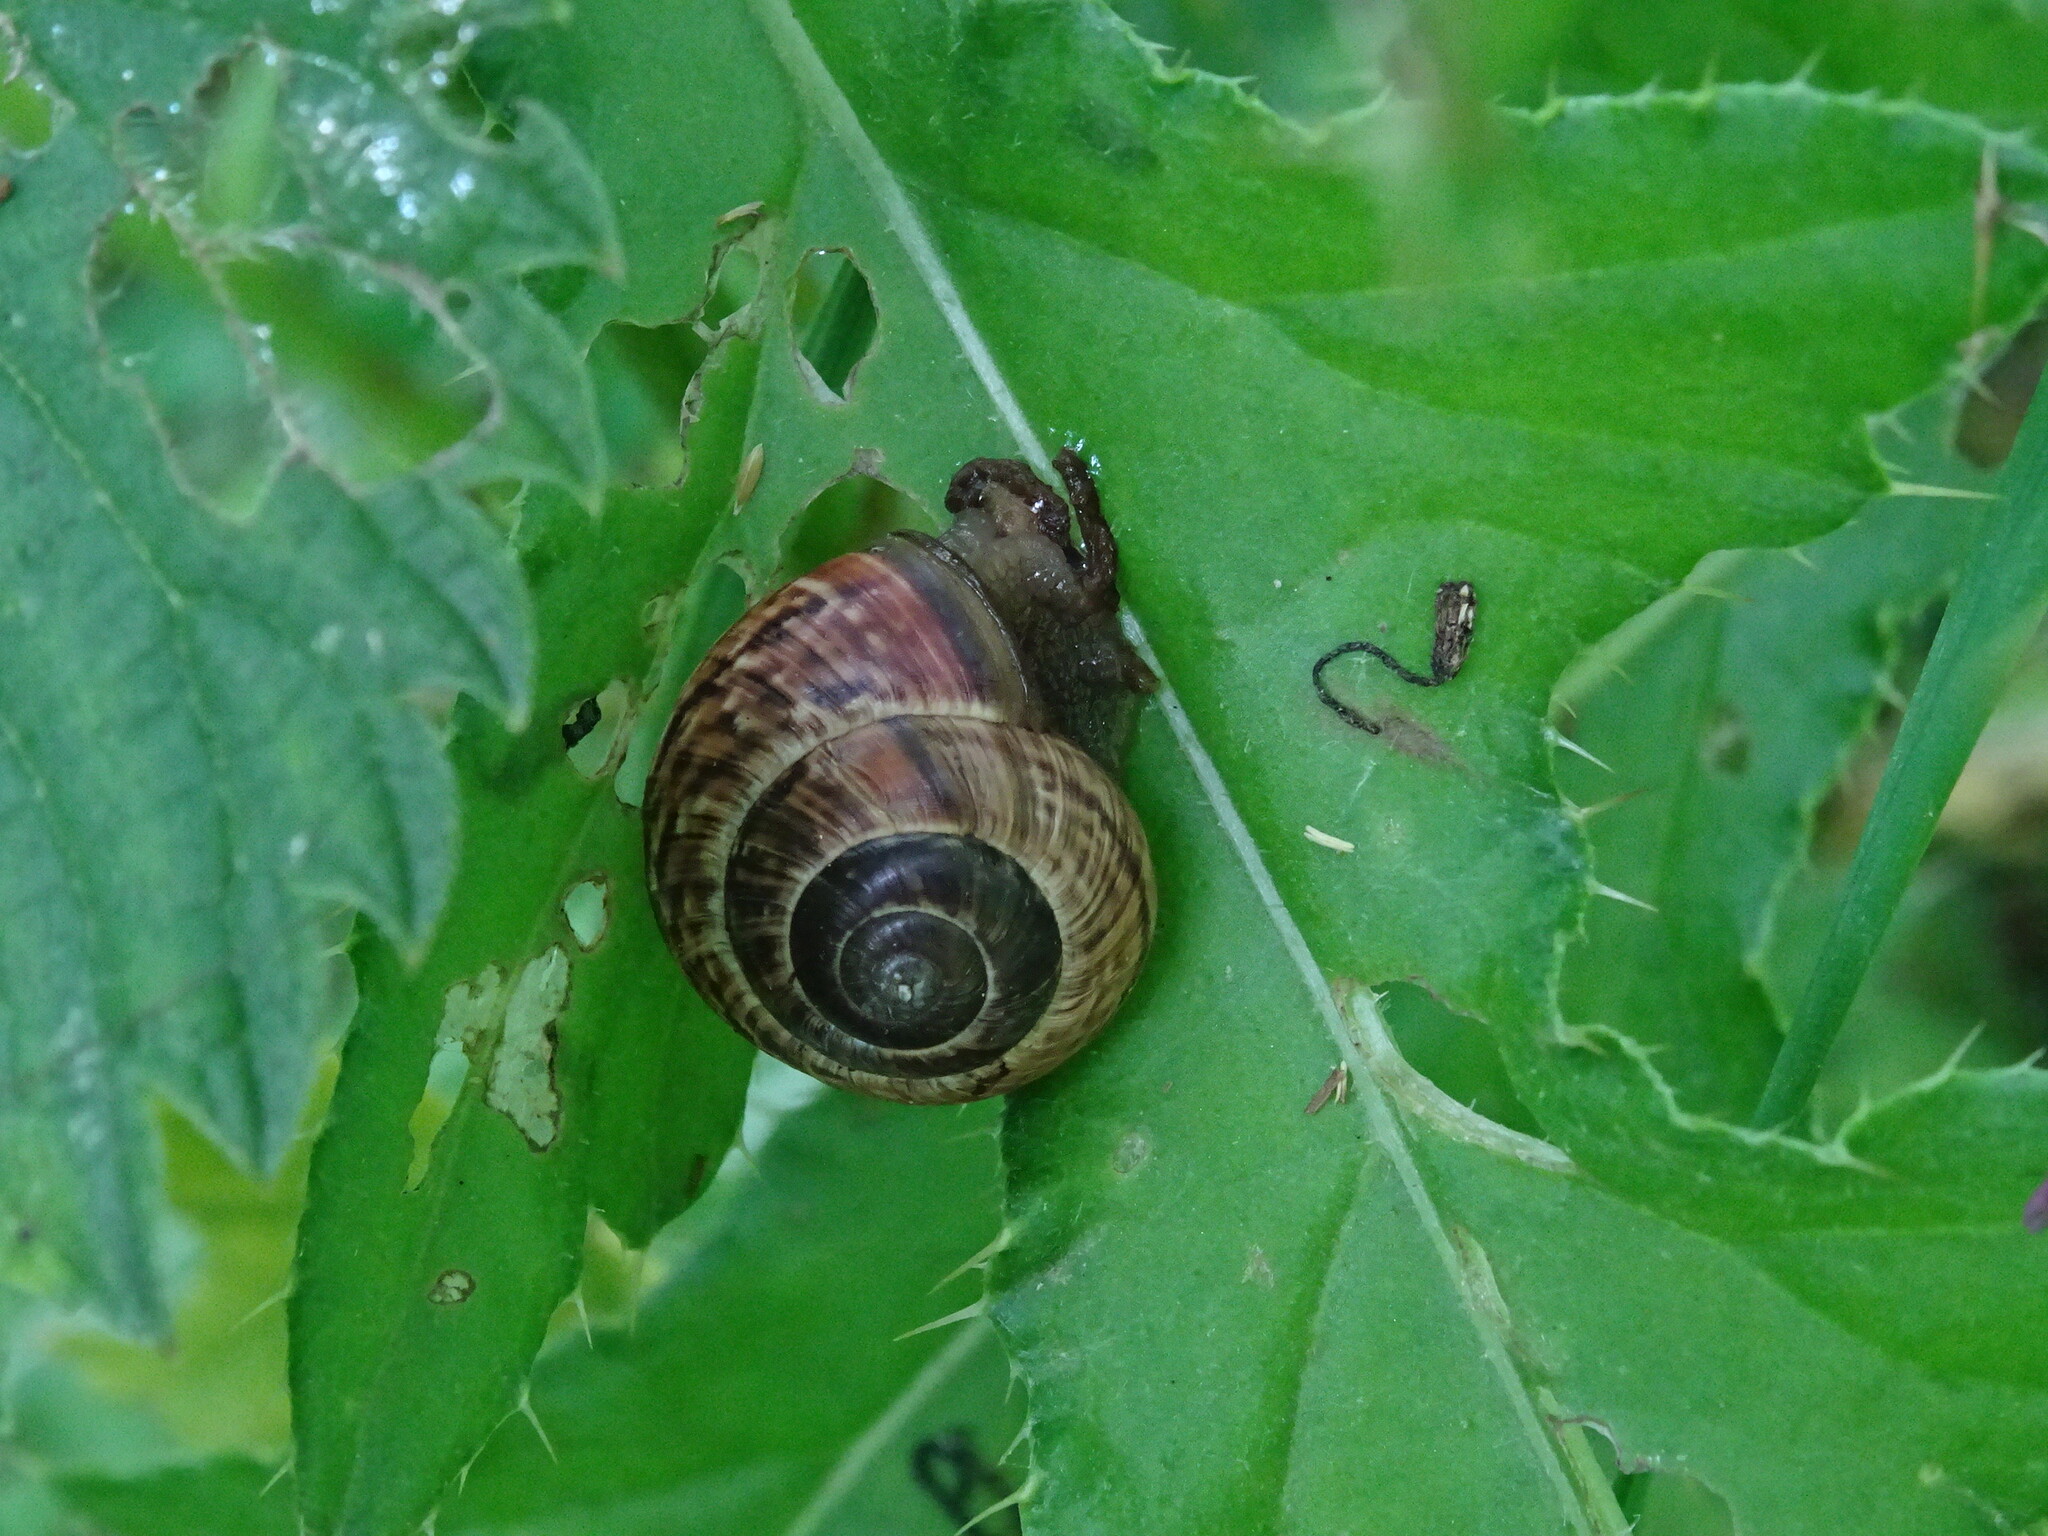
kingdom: Animalia
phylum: Mollusca
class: Gastropoda
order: Stylommatophora
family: Helicidae
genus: Arianta
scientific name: Arianta arbustorum
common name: Copse snail
